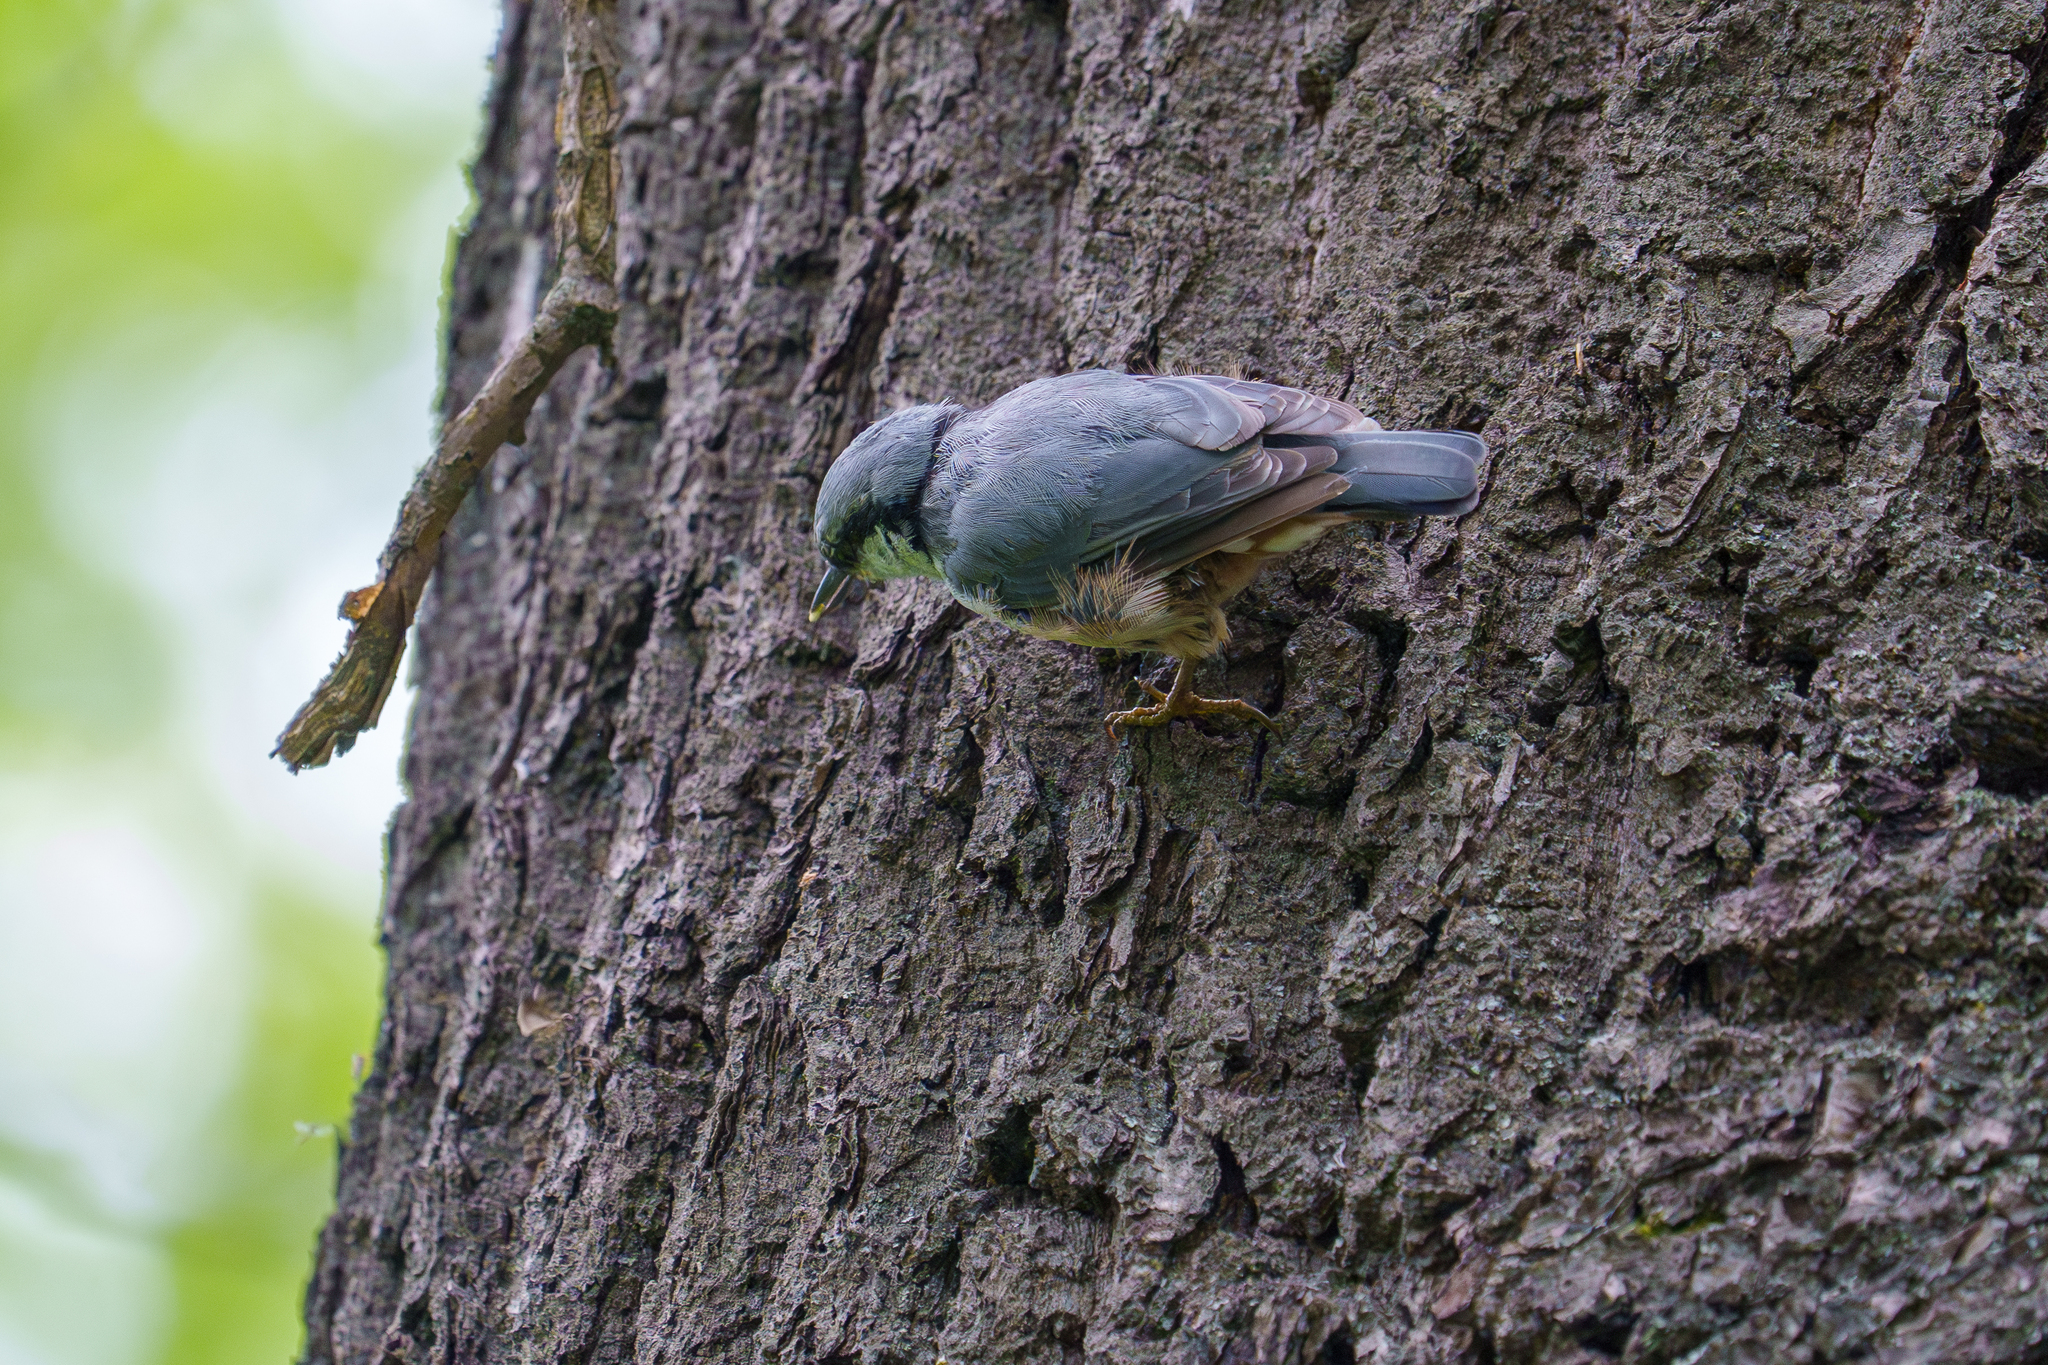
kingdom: Animalia
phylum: Chordata
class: Aves
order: Passeriformes
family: Sittidae
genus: Sitta
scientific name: Sitta europaea
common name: Eurasian nuthatch
